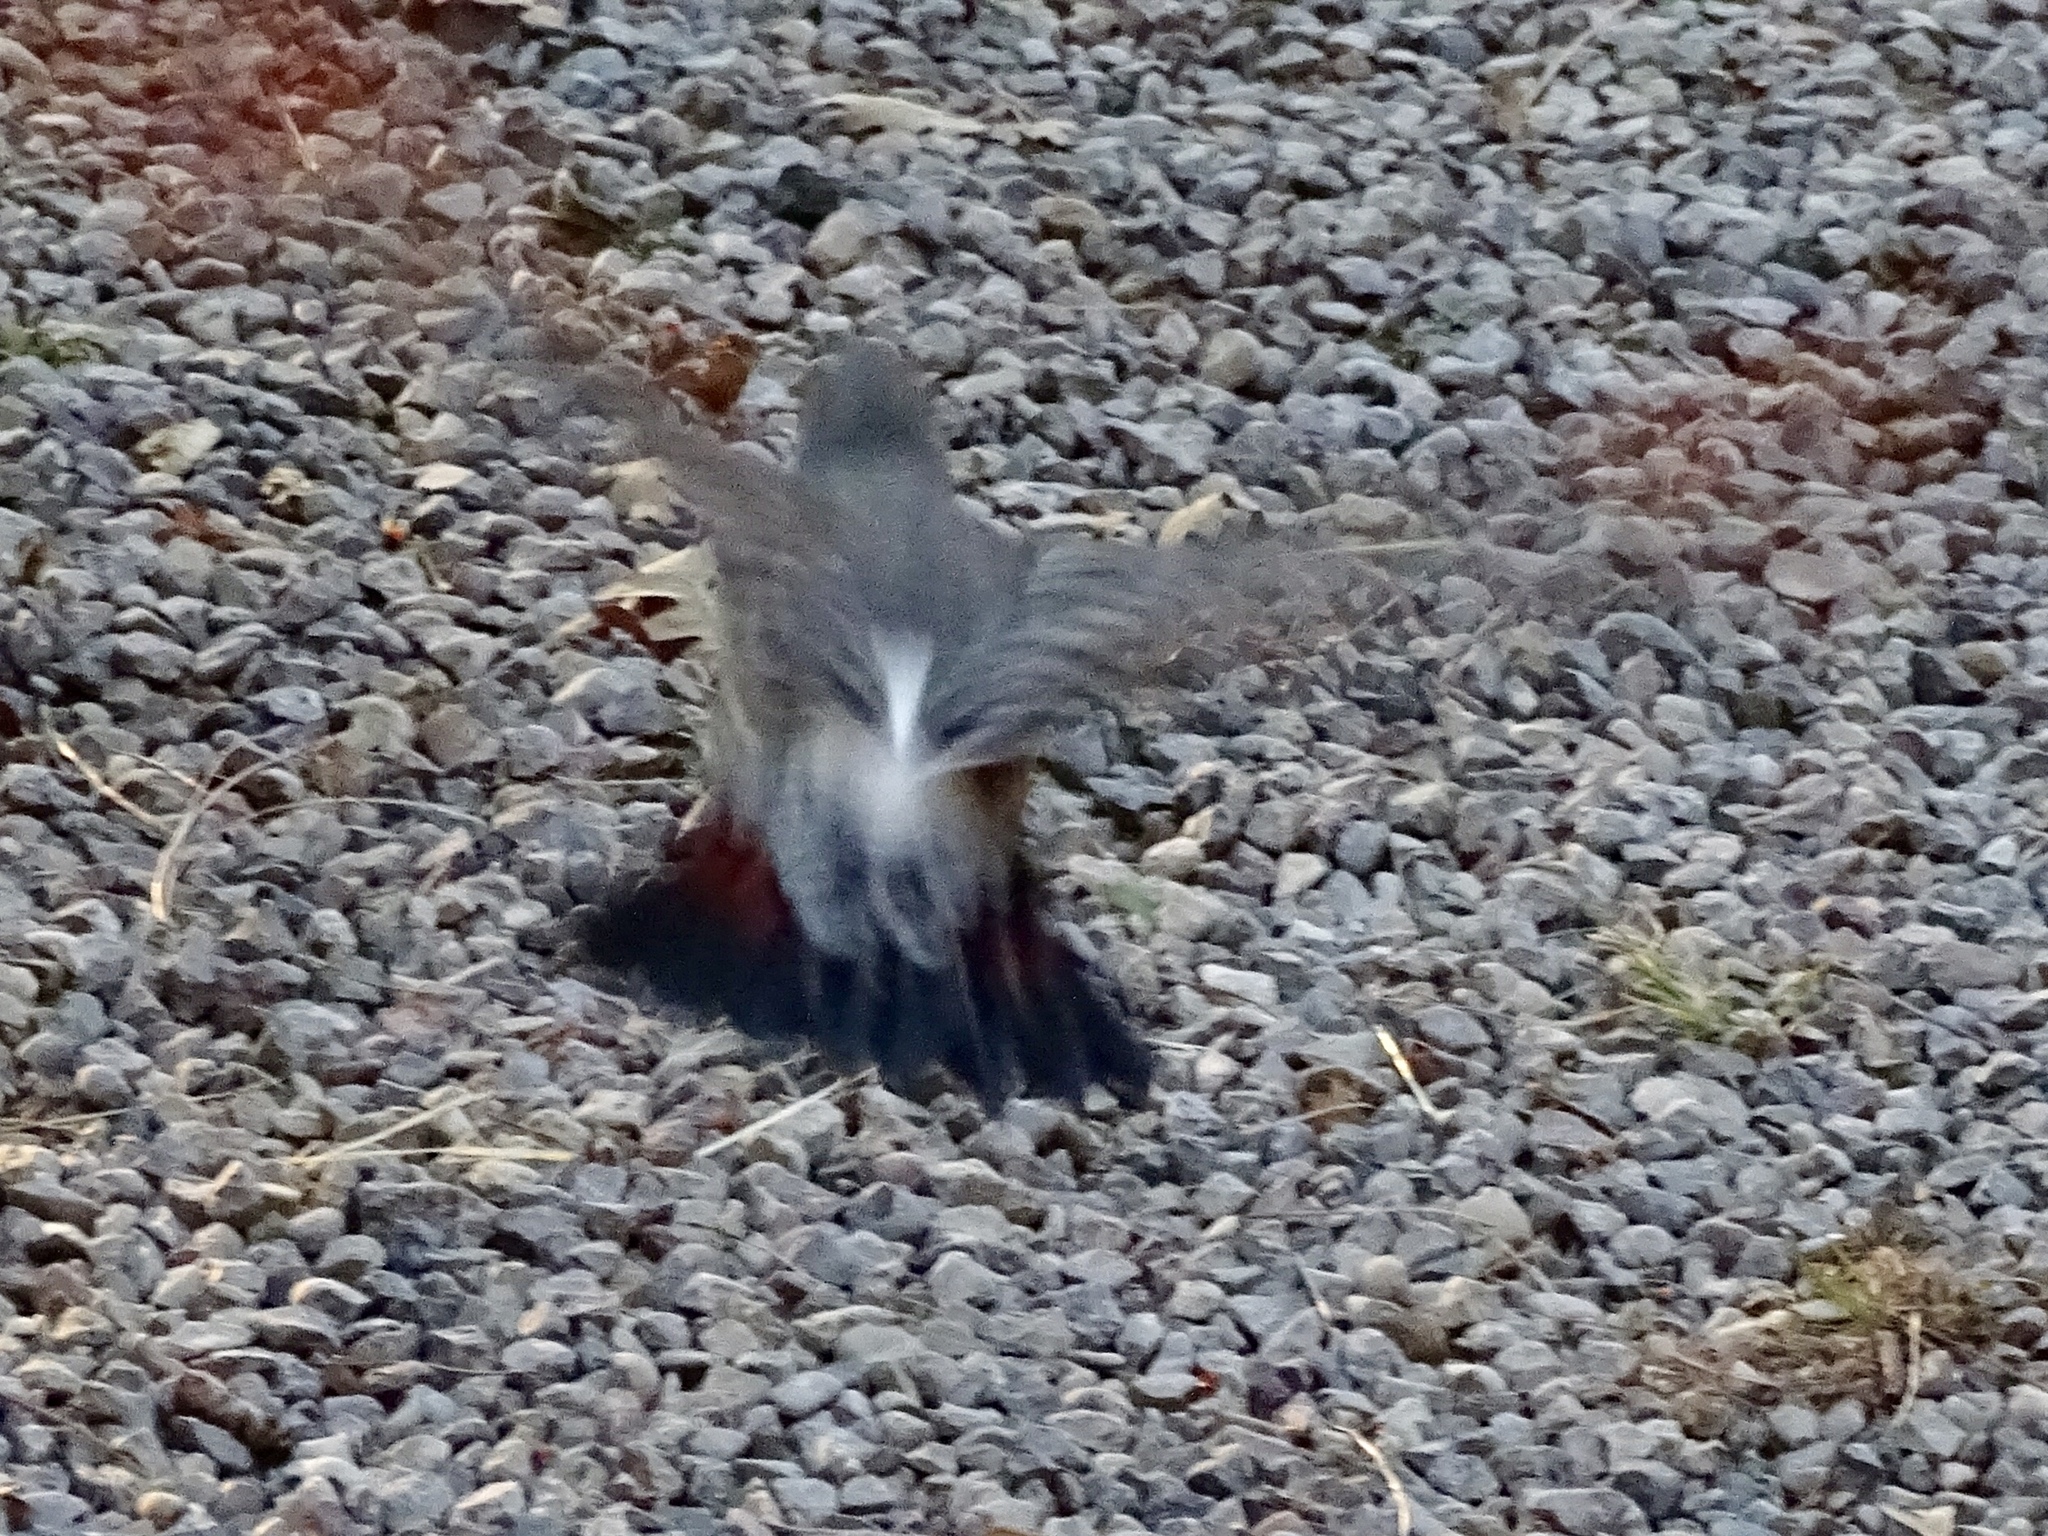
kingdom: Animalia
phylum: Chordata
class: Aves
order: Piciformes
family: Picidae
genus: Colaptes
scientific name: Colaptes auratus
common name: Northern flicker
